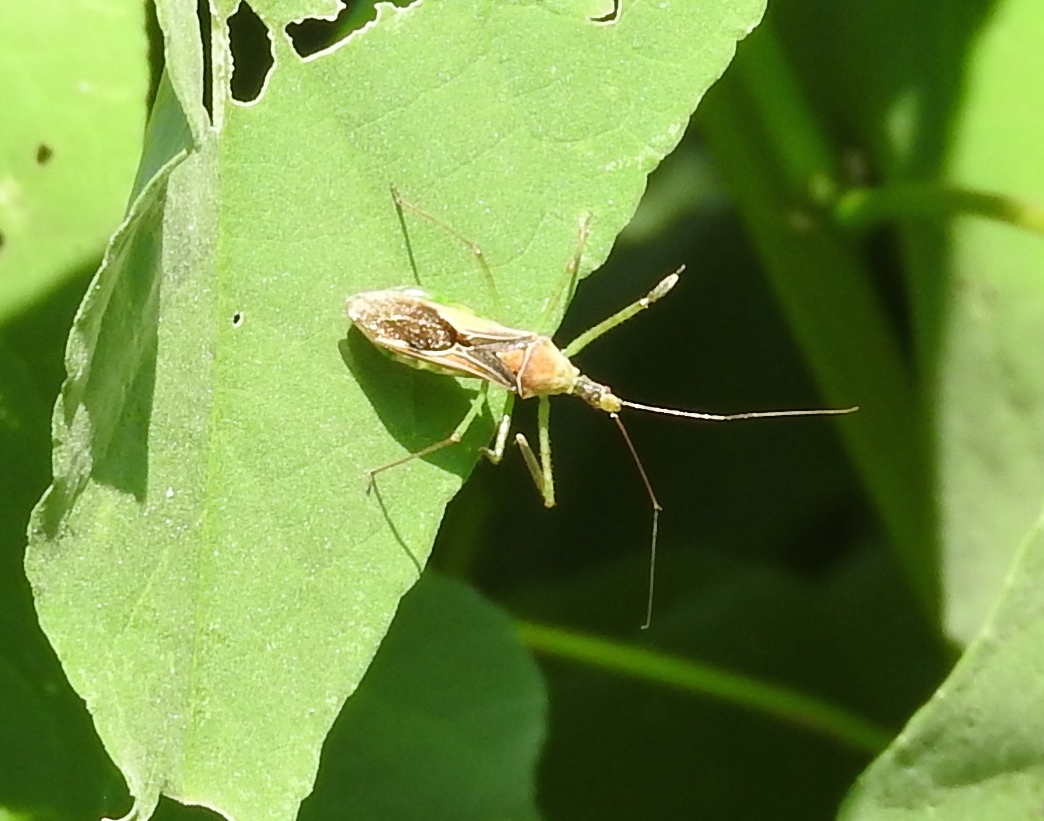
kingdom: Animalia
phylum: Arthropoda
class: Insecta
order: Hemiptera
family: Reduviidae
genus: Zelus
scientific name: Zelus renardii
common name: Assassin bug
